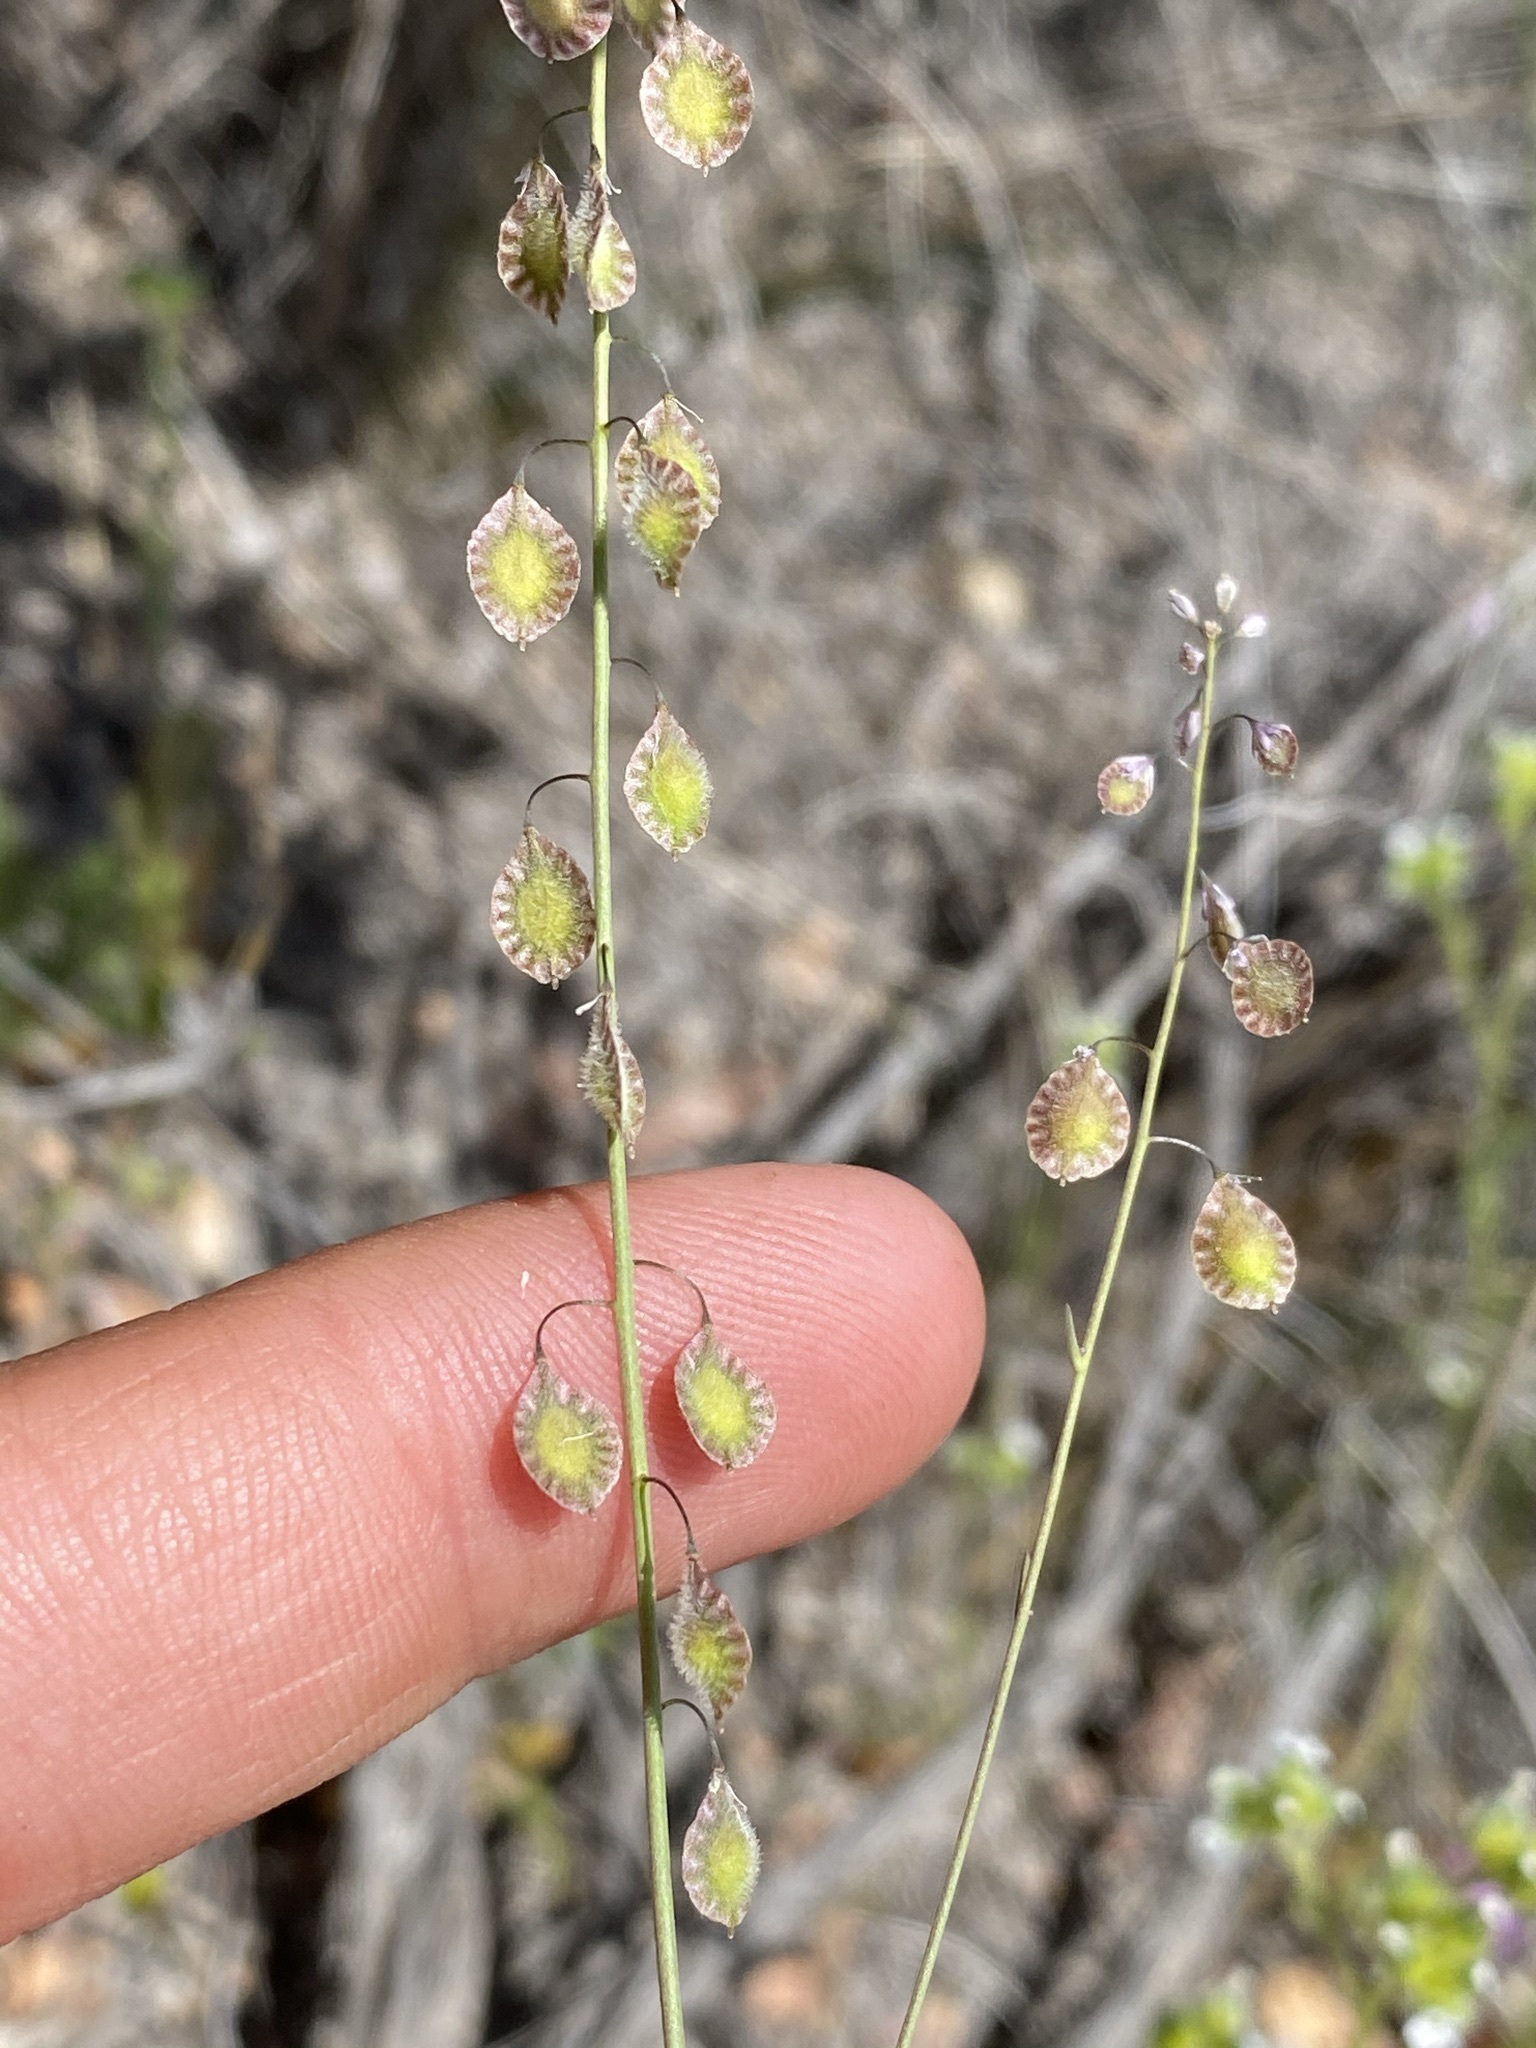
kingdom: Plantae
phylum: Tracheophyta
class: Magnoliopsida
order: Brassicales
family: Brassicaceae
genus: Thysanocarpus
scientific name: Thysanocarpus curvipes
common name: Sand fringepod
